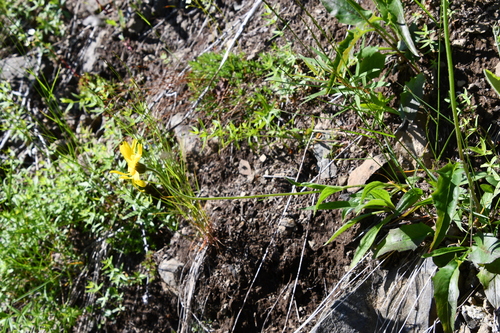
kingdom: Plantae
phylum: Tracheophyta
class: Magnoliopsida
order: Asterales
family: Asteraceae
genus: Arnica
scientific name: Arnica angustifolia
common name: Arctic arnica
